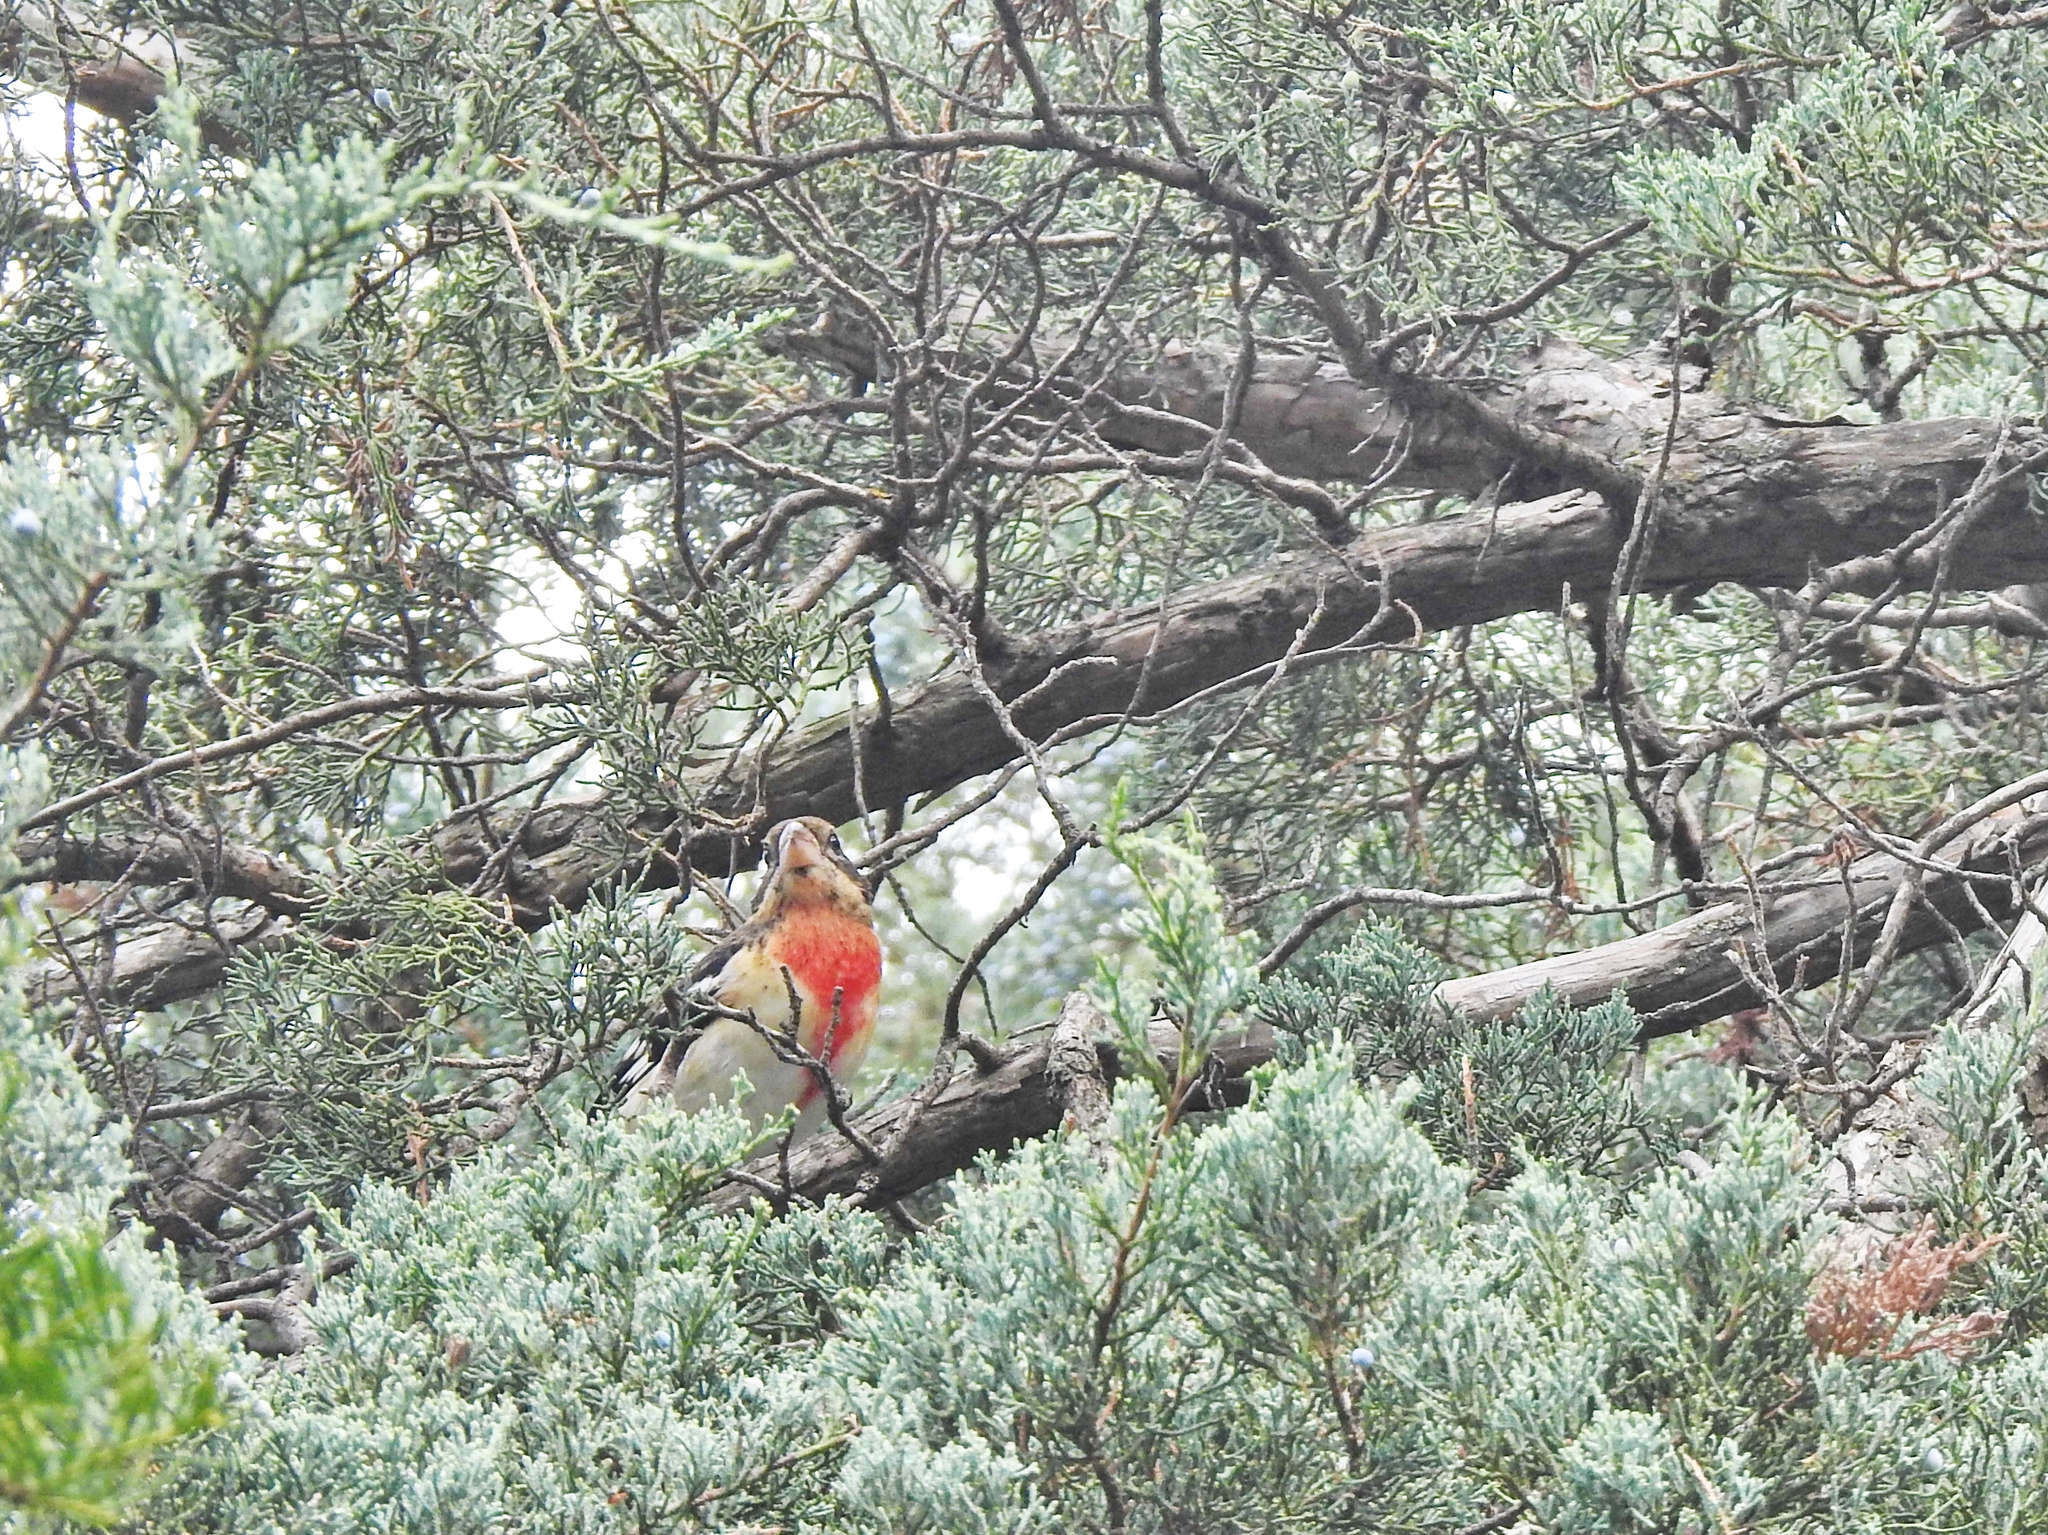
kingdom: Animalia
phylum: Chordata
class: Aves
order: Passeriformes
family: Cardinalidae
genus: Pheucticus
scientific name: Pheucticus ludovicianus
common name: Rose-breasted grosbeak
